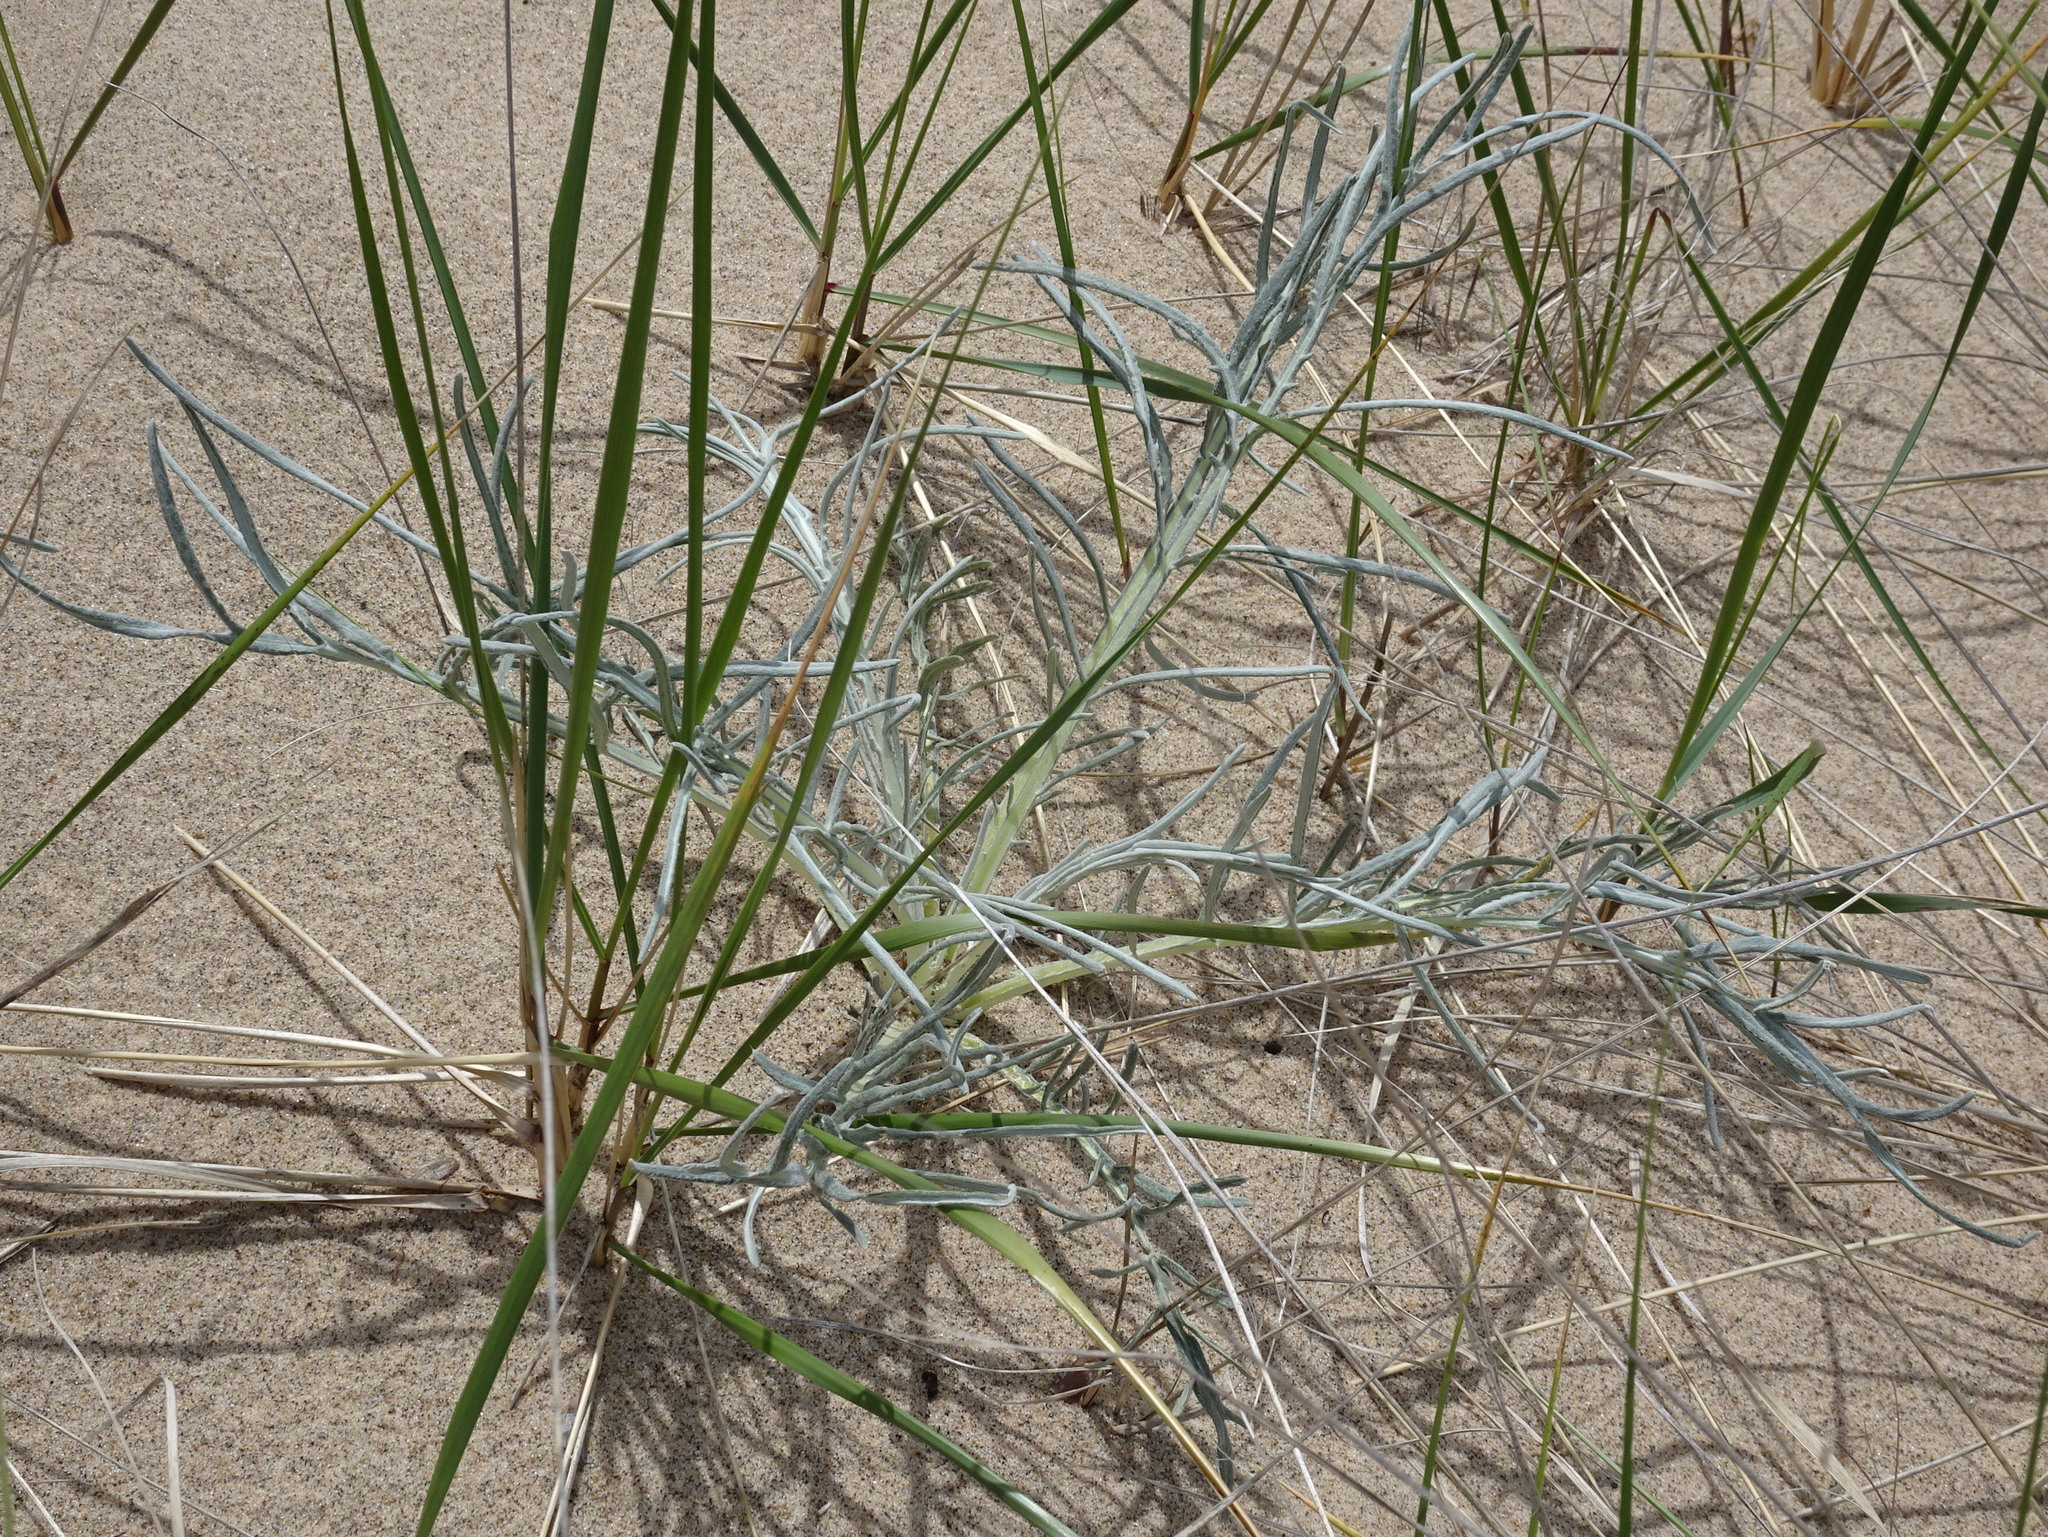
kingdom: Plantae
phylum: Tracheophyta
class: Magnoliopsida
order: Asterales
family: Asteraceae
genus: Cirsium
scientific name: Cirsium pitcheri
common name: Dune thistle
